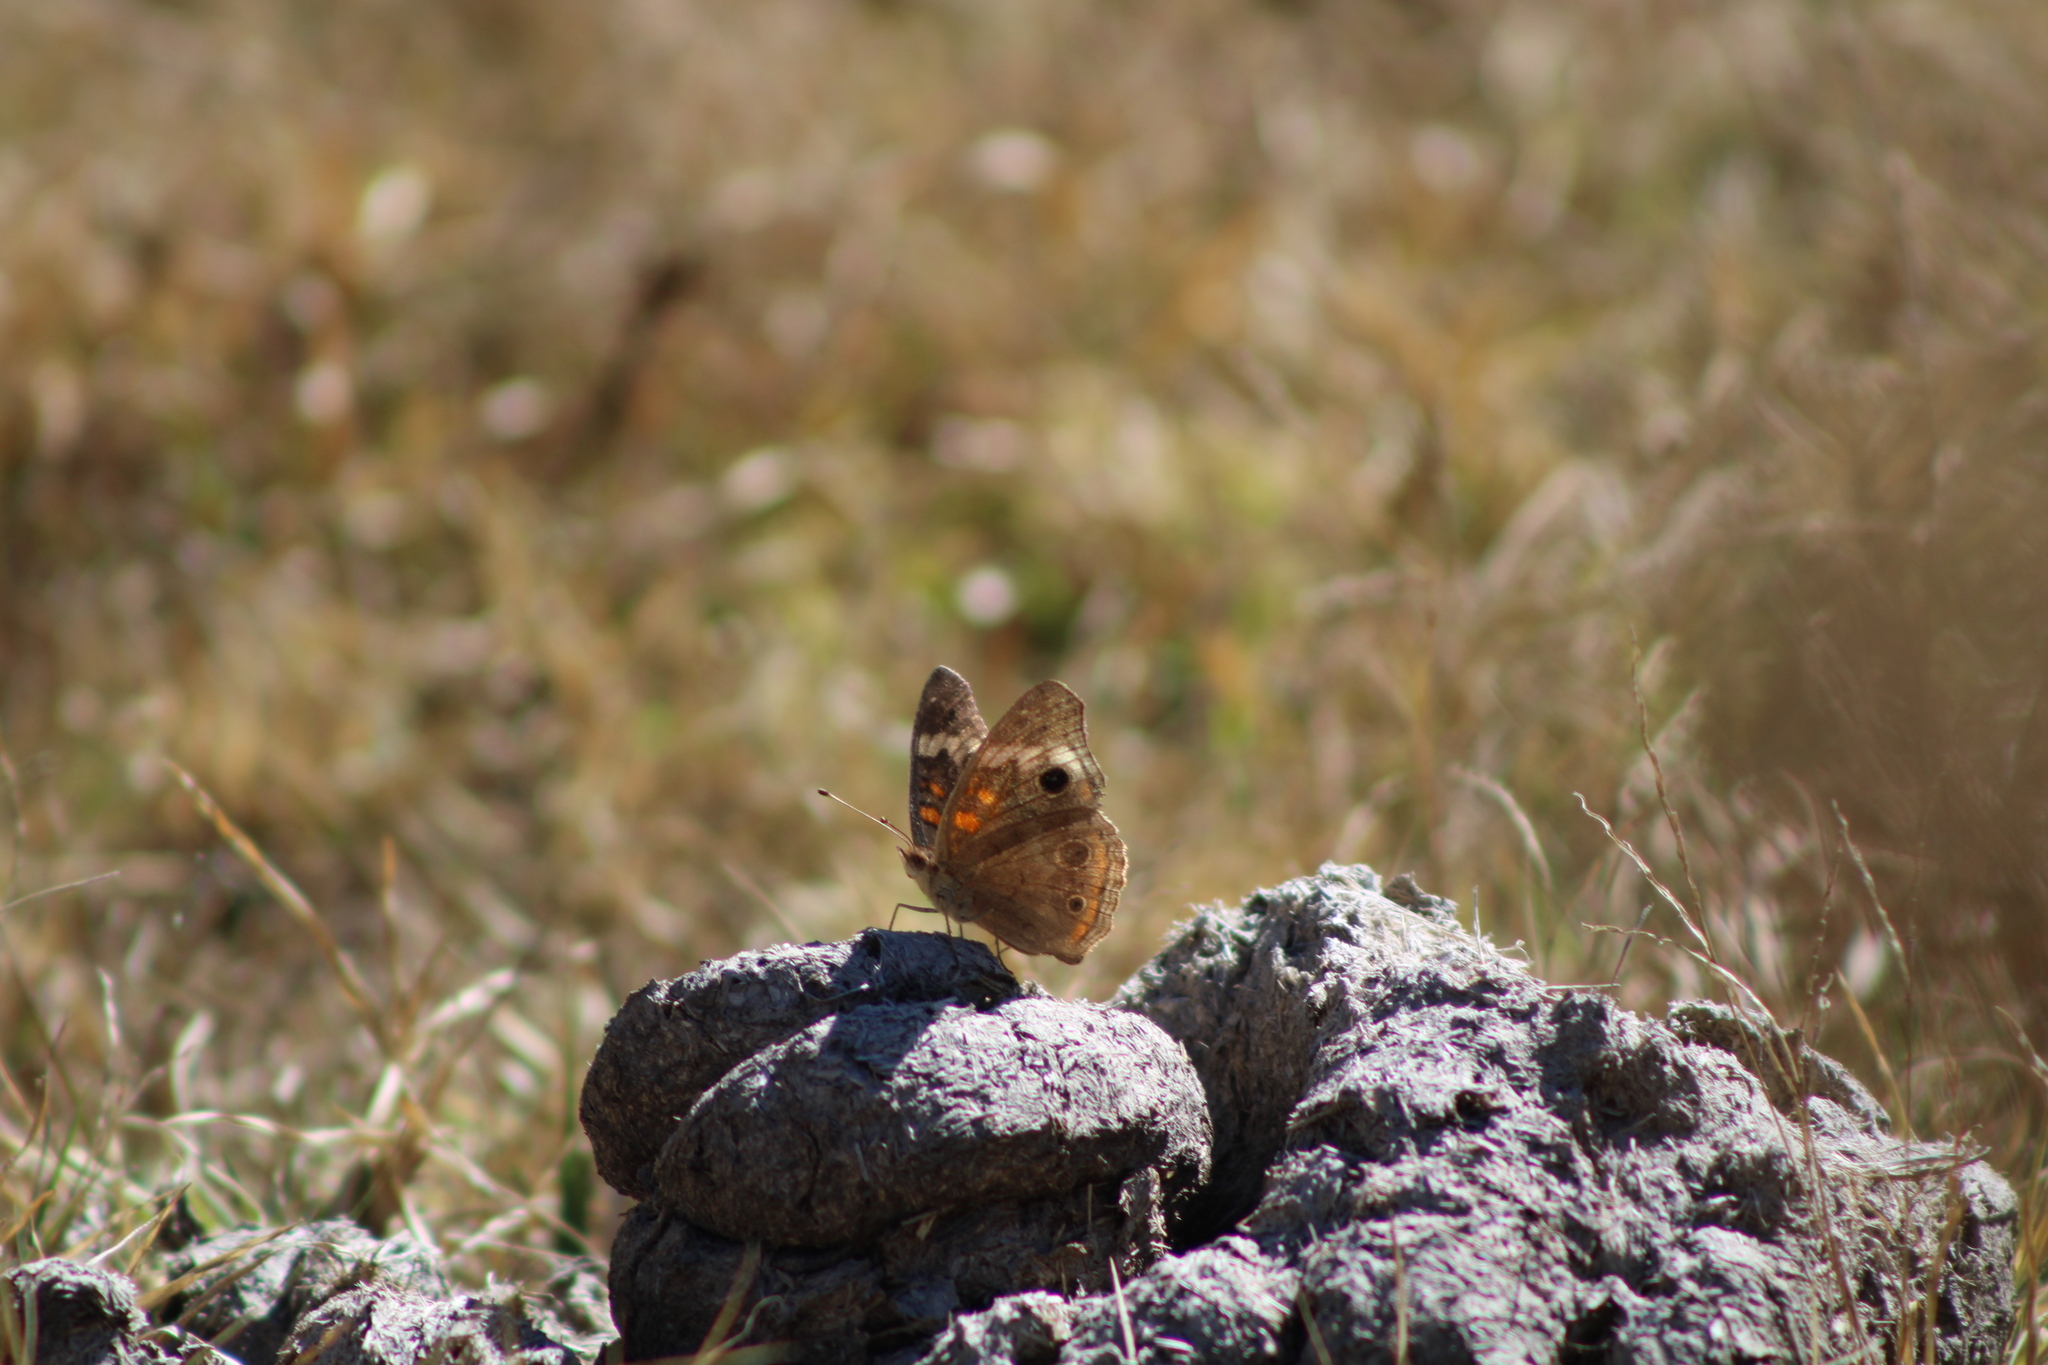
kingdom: Animalia
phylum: Arthropoda
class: Insecta
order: Lepidoptera
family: Nymphalidae
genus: Junonia
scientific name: Junonia coenia
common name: Common buckeye
